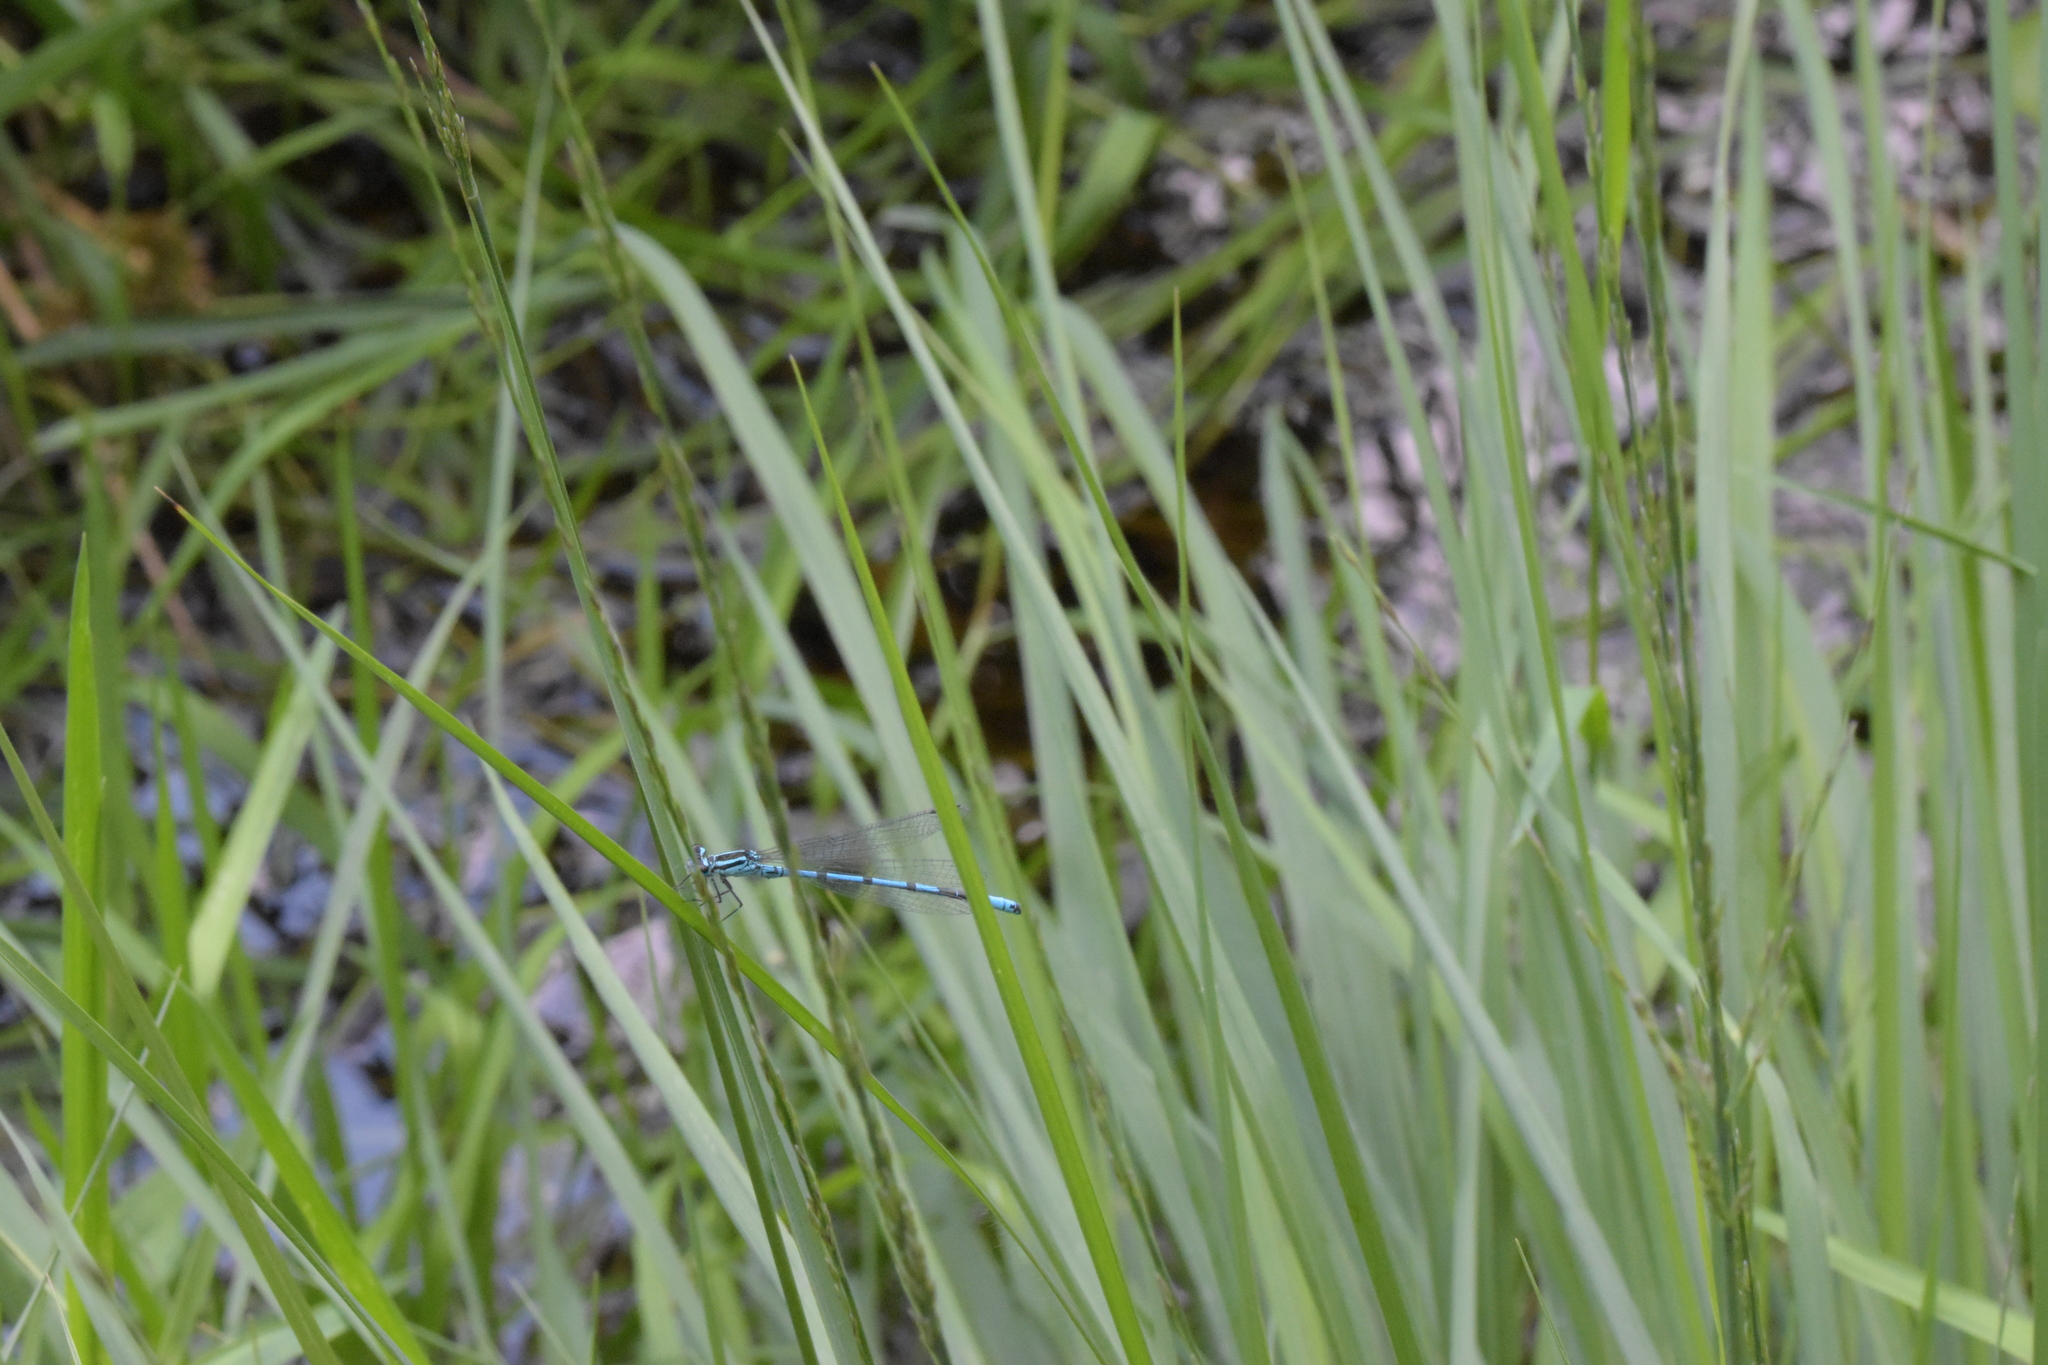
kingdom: Animalia
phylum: Arthropoda
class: Insecta
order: Odonata
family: Coenagrionidae
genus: Coenagrion
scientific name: Coenagrion puella
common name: Azure damselfly
